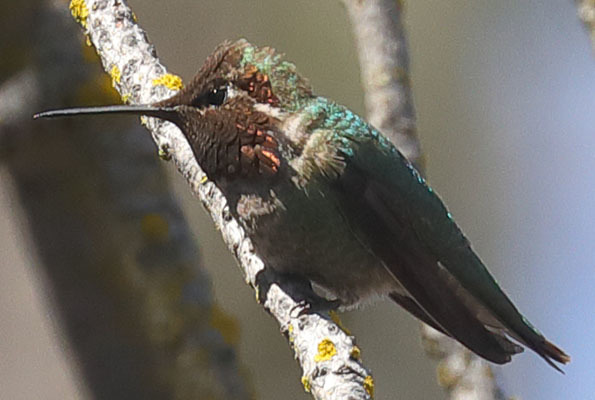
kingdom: Animalia
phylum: Chordata
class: Aves
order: Apodiformes
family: Trochilidae
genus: Calypte
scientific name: Calypte anna
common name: Anna's hummingbird
